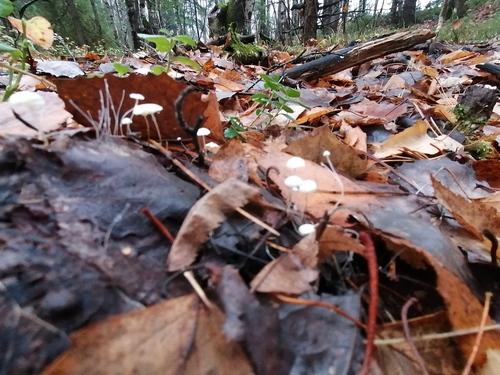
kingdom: Fungi
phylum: Basidiomycota
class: Agaricomycetes
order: Agaricales
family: Marasmiaceae
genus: Marasmius
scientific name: Marasmius epiphyllus
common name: Leaf parachute
